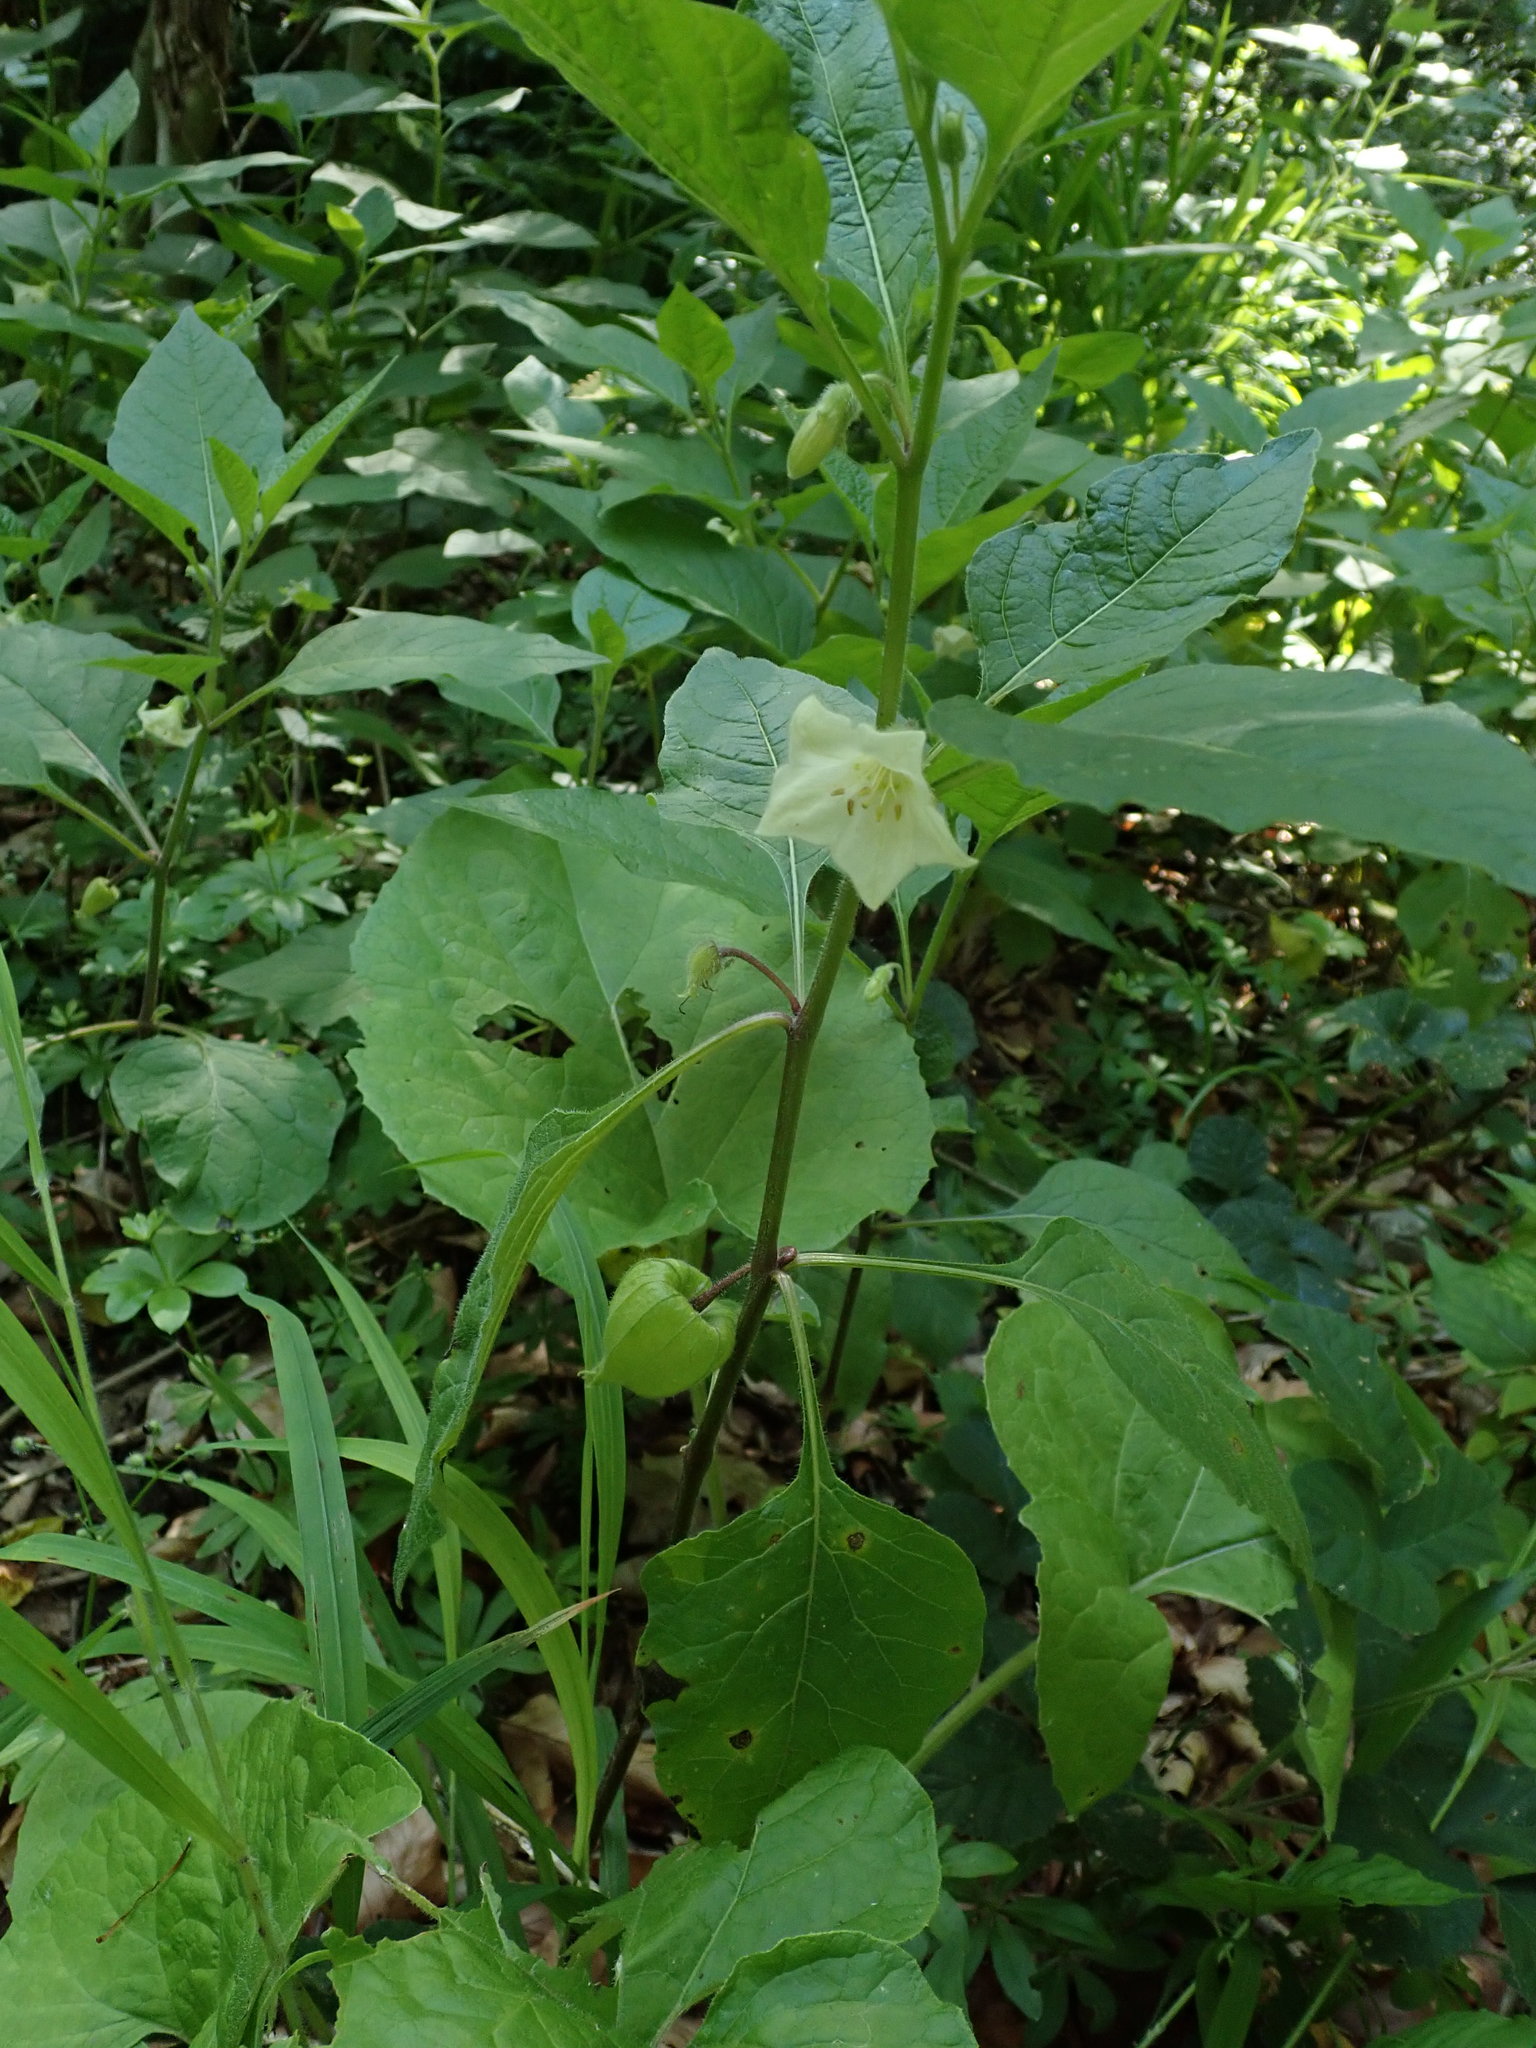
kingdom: Plantae
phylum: Tracheophyta
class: Magnoliopsida
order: Solanales
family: Solanaceae
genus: Alkekengi
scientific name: Alkekengi officinarum
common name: Japanese-lantern
